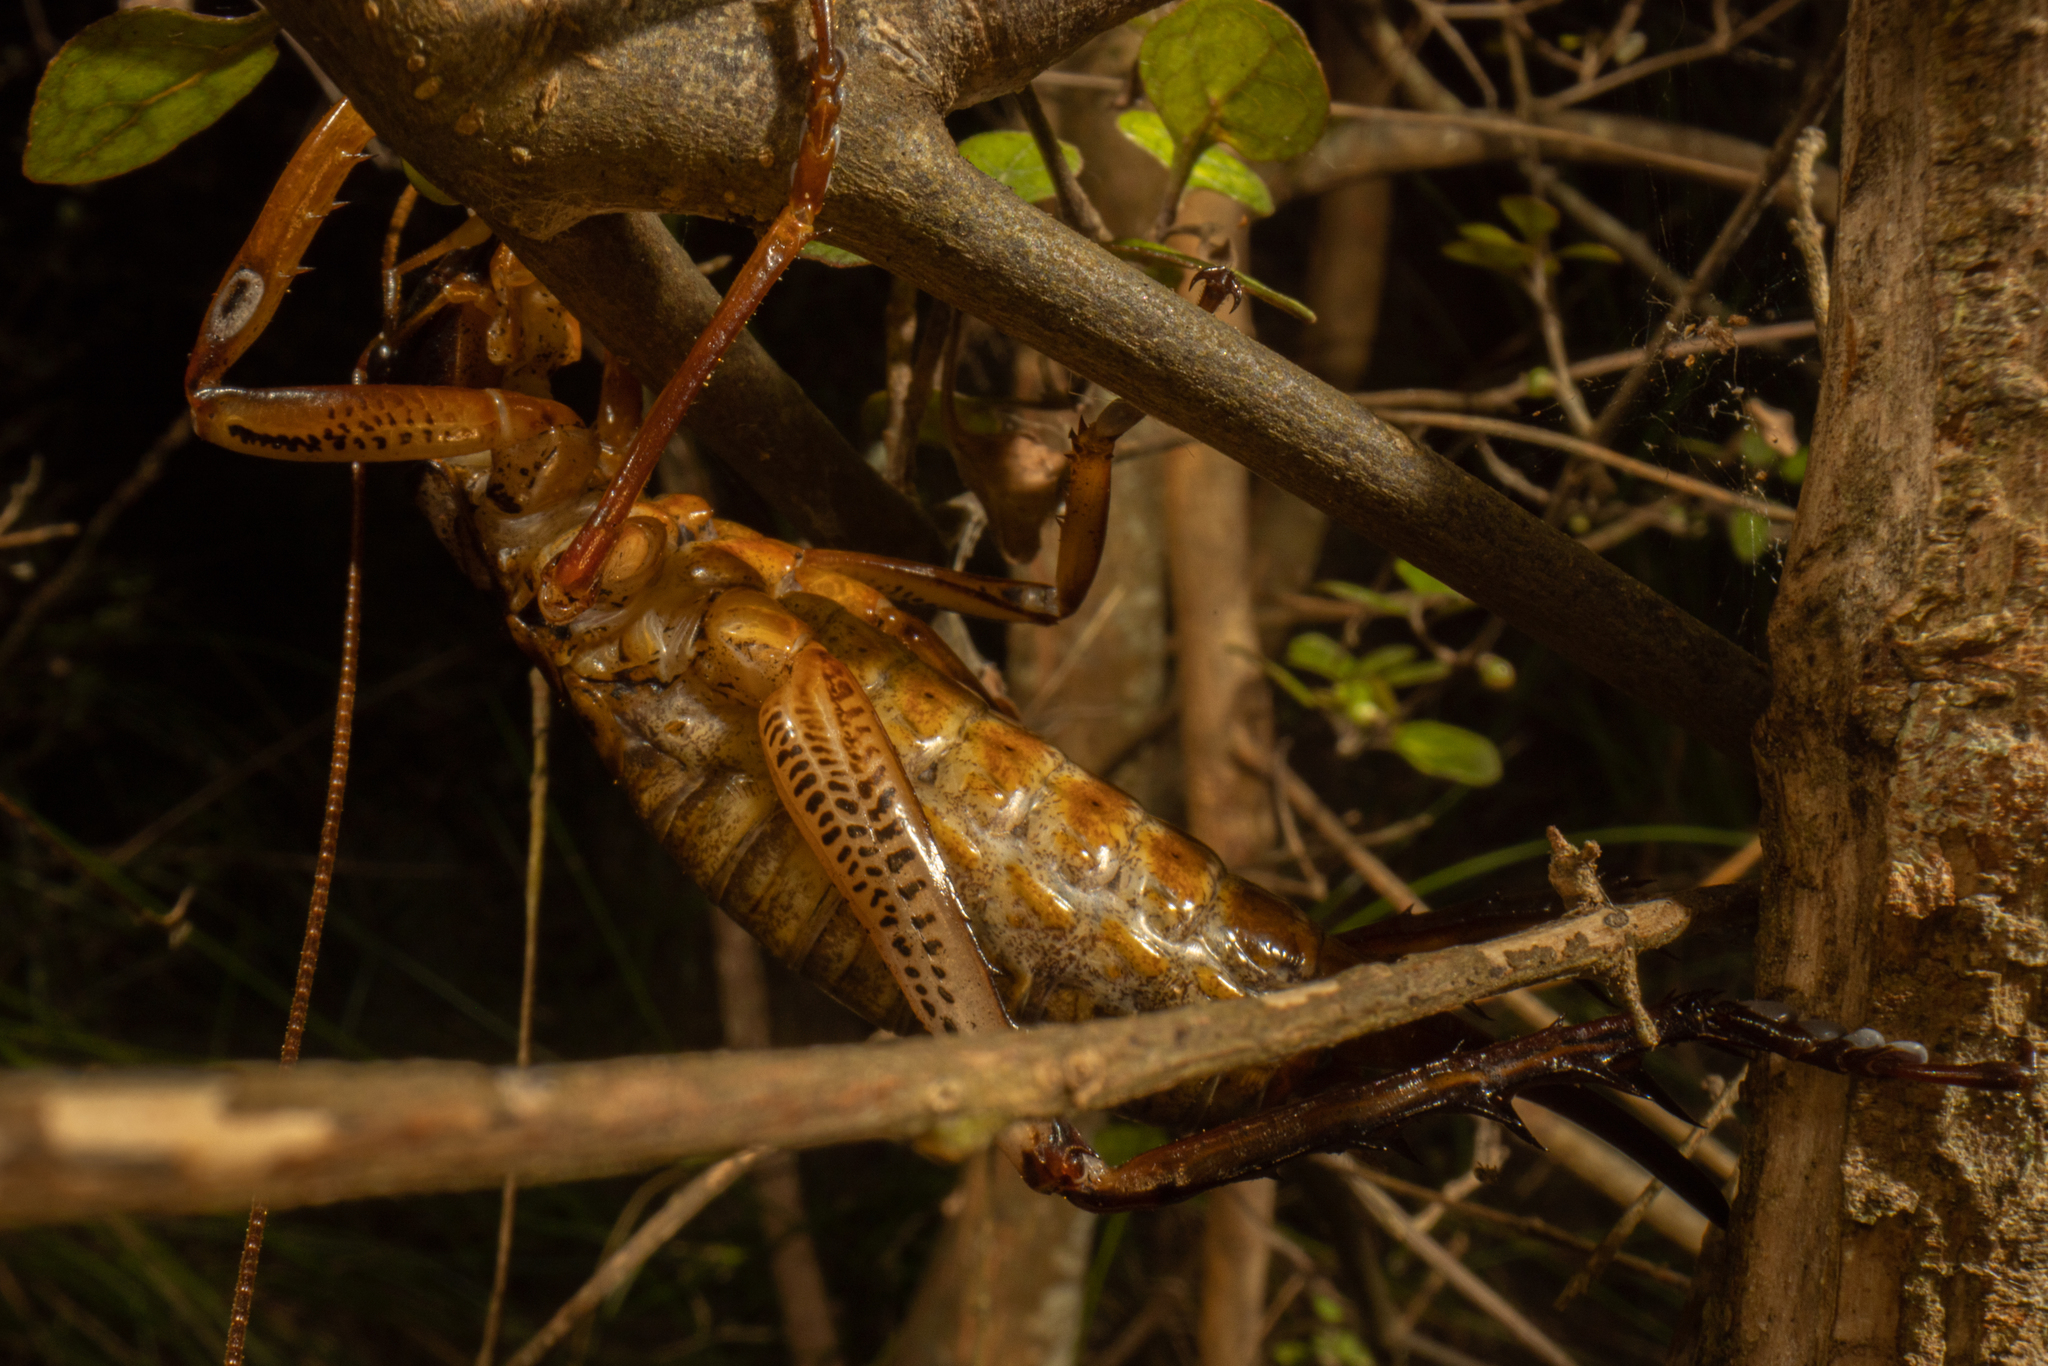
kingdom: Animalia
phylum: Arthropoda
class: Insecta
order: Orthoptera
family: Anostostomatidae
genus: Hemideina
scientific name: Hemideina thoracica
